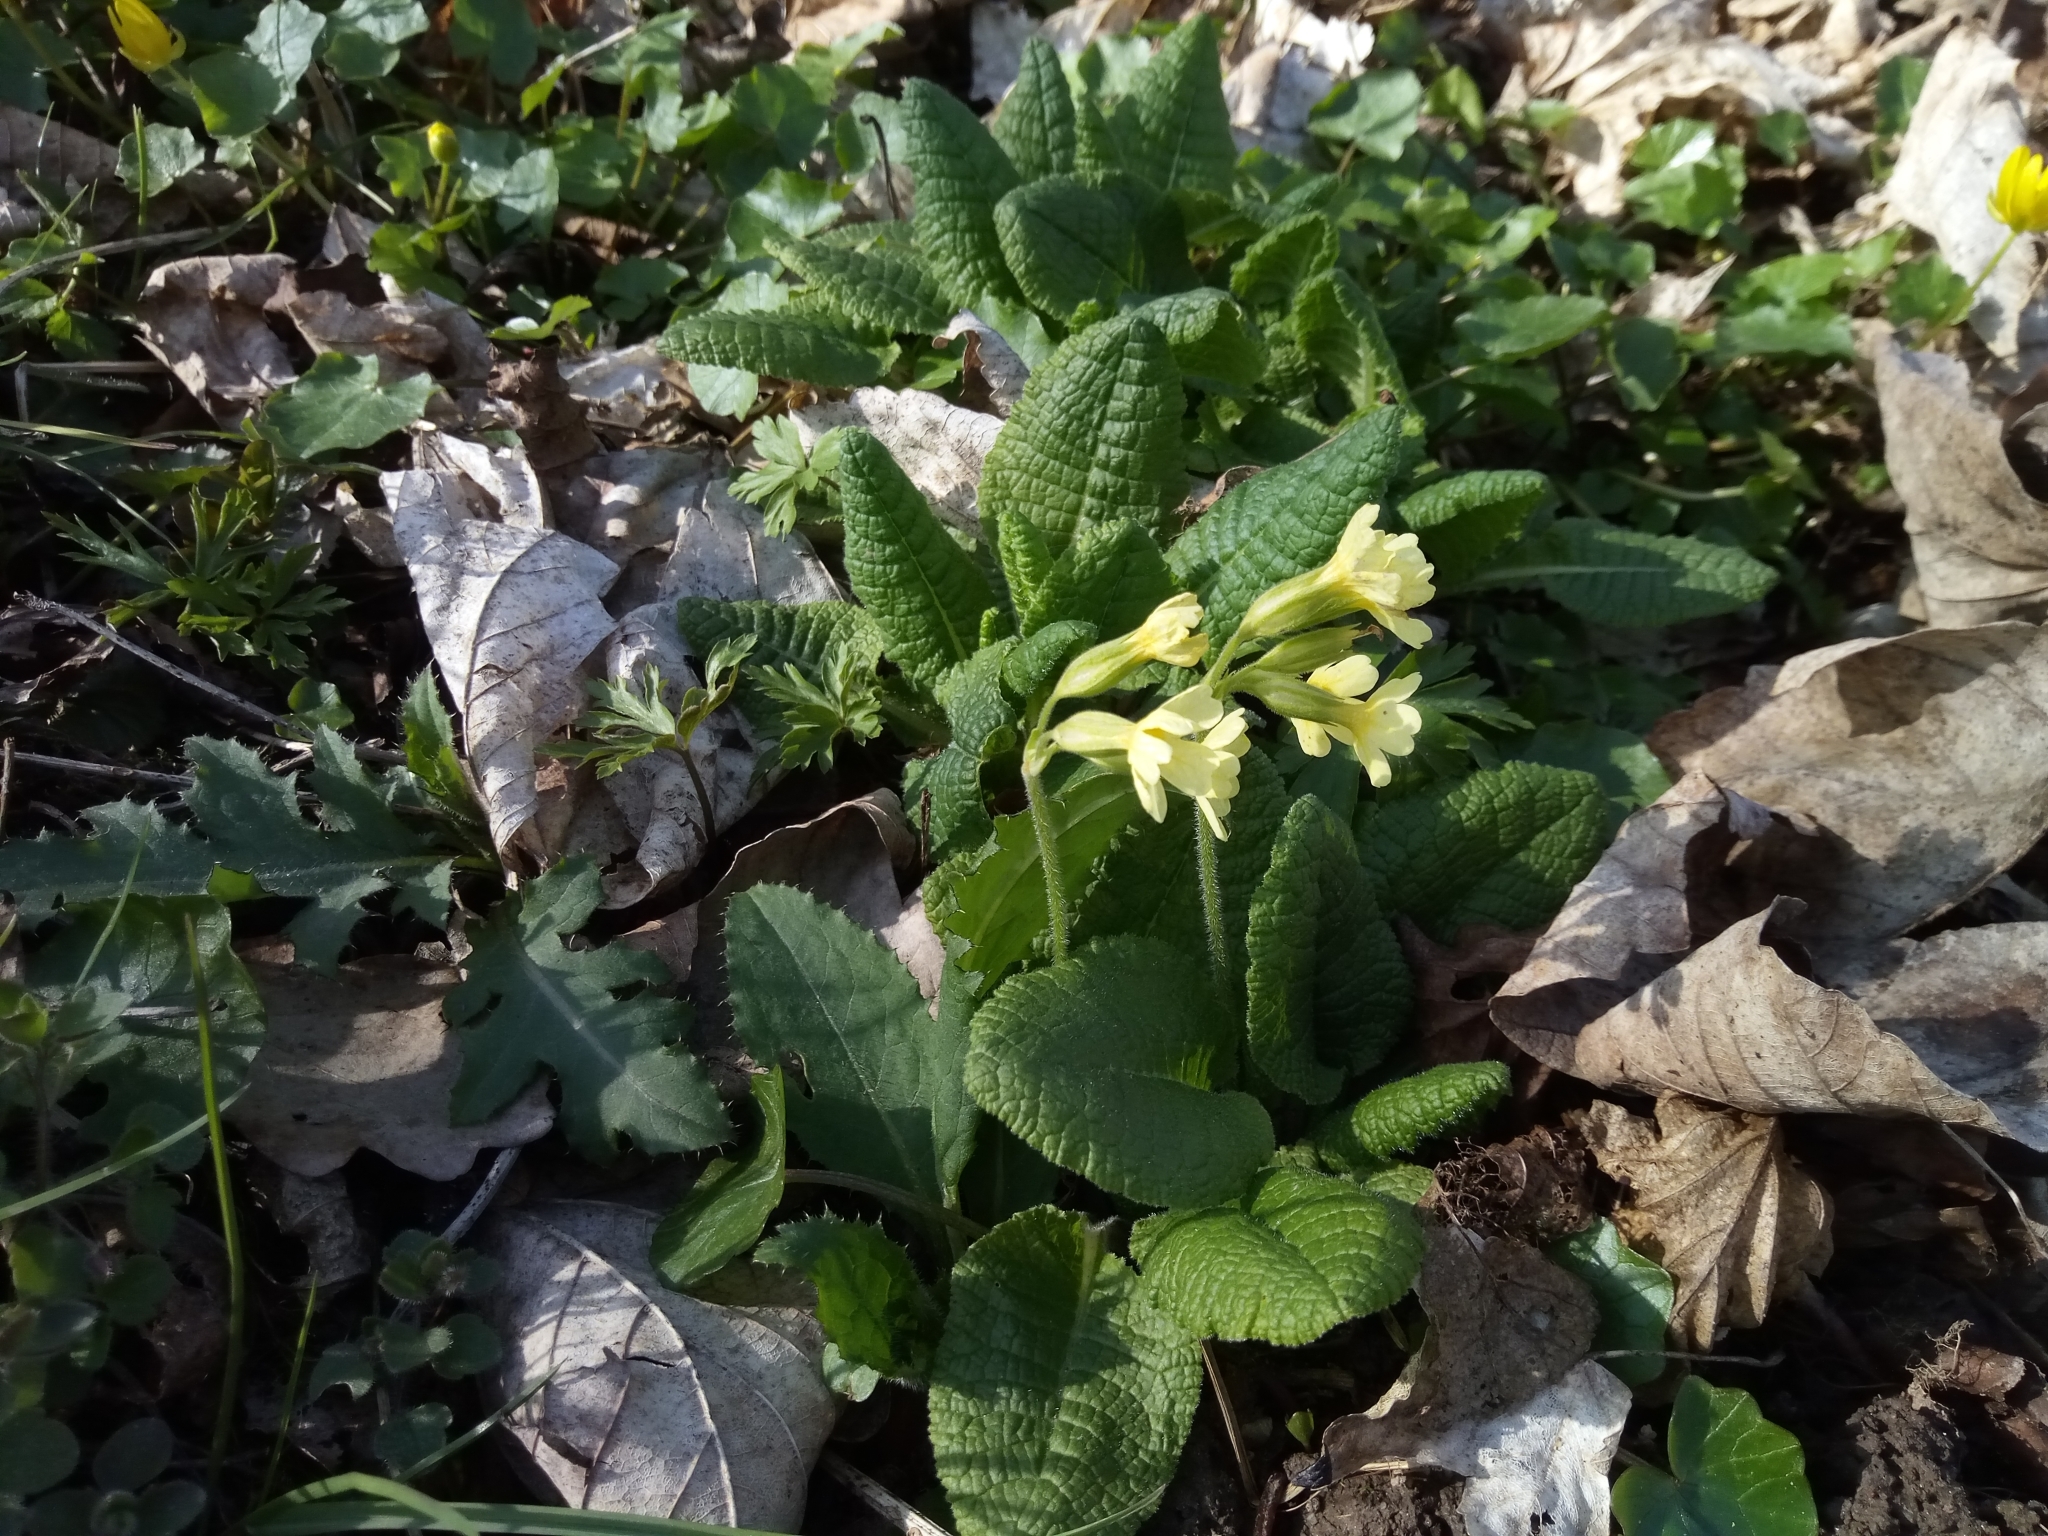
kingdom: Plantae
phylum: Tracheophyta
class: Magnoliopsida
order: Ericales
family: Primulaceae
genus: Primula
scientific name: Primula elatior
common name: Oxlip
